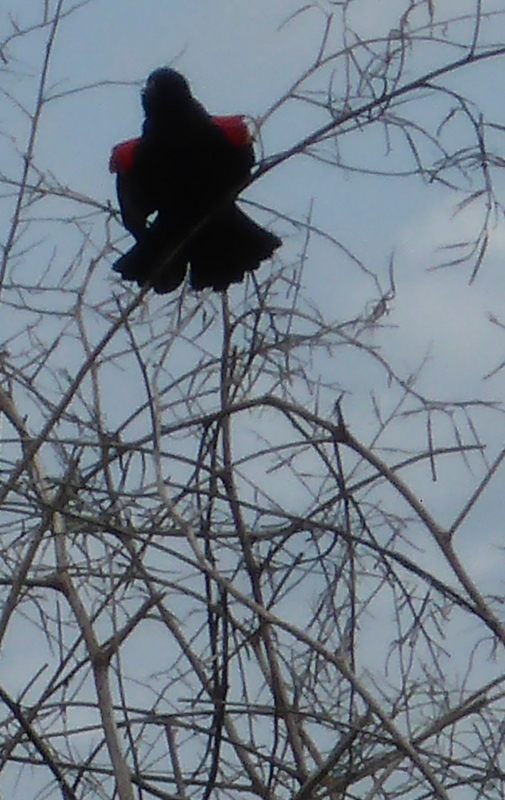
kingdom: Animalia
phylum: Chordata
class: Aves
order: Passeriformes
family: Icteridae
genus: Agelaius
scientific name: Agelaius phoeniceus
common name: Red-winged blackbird
